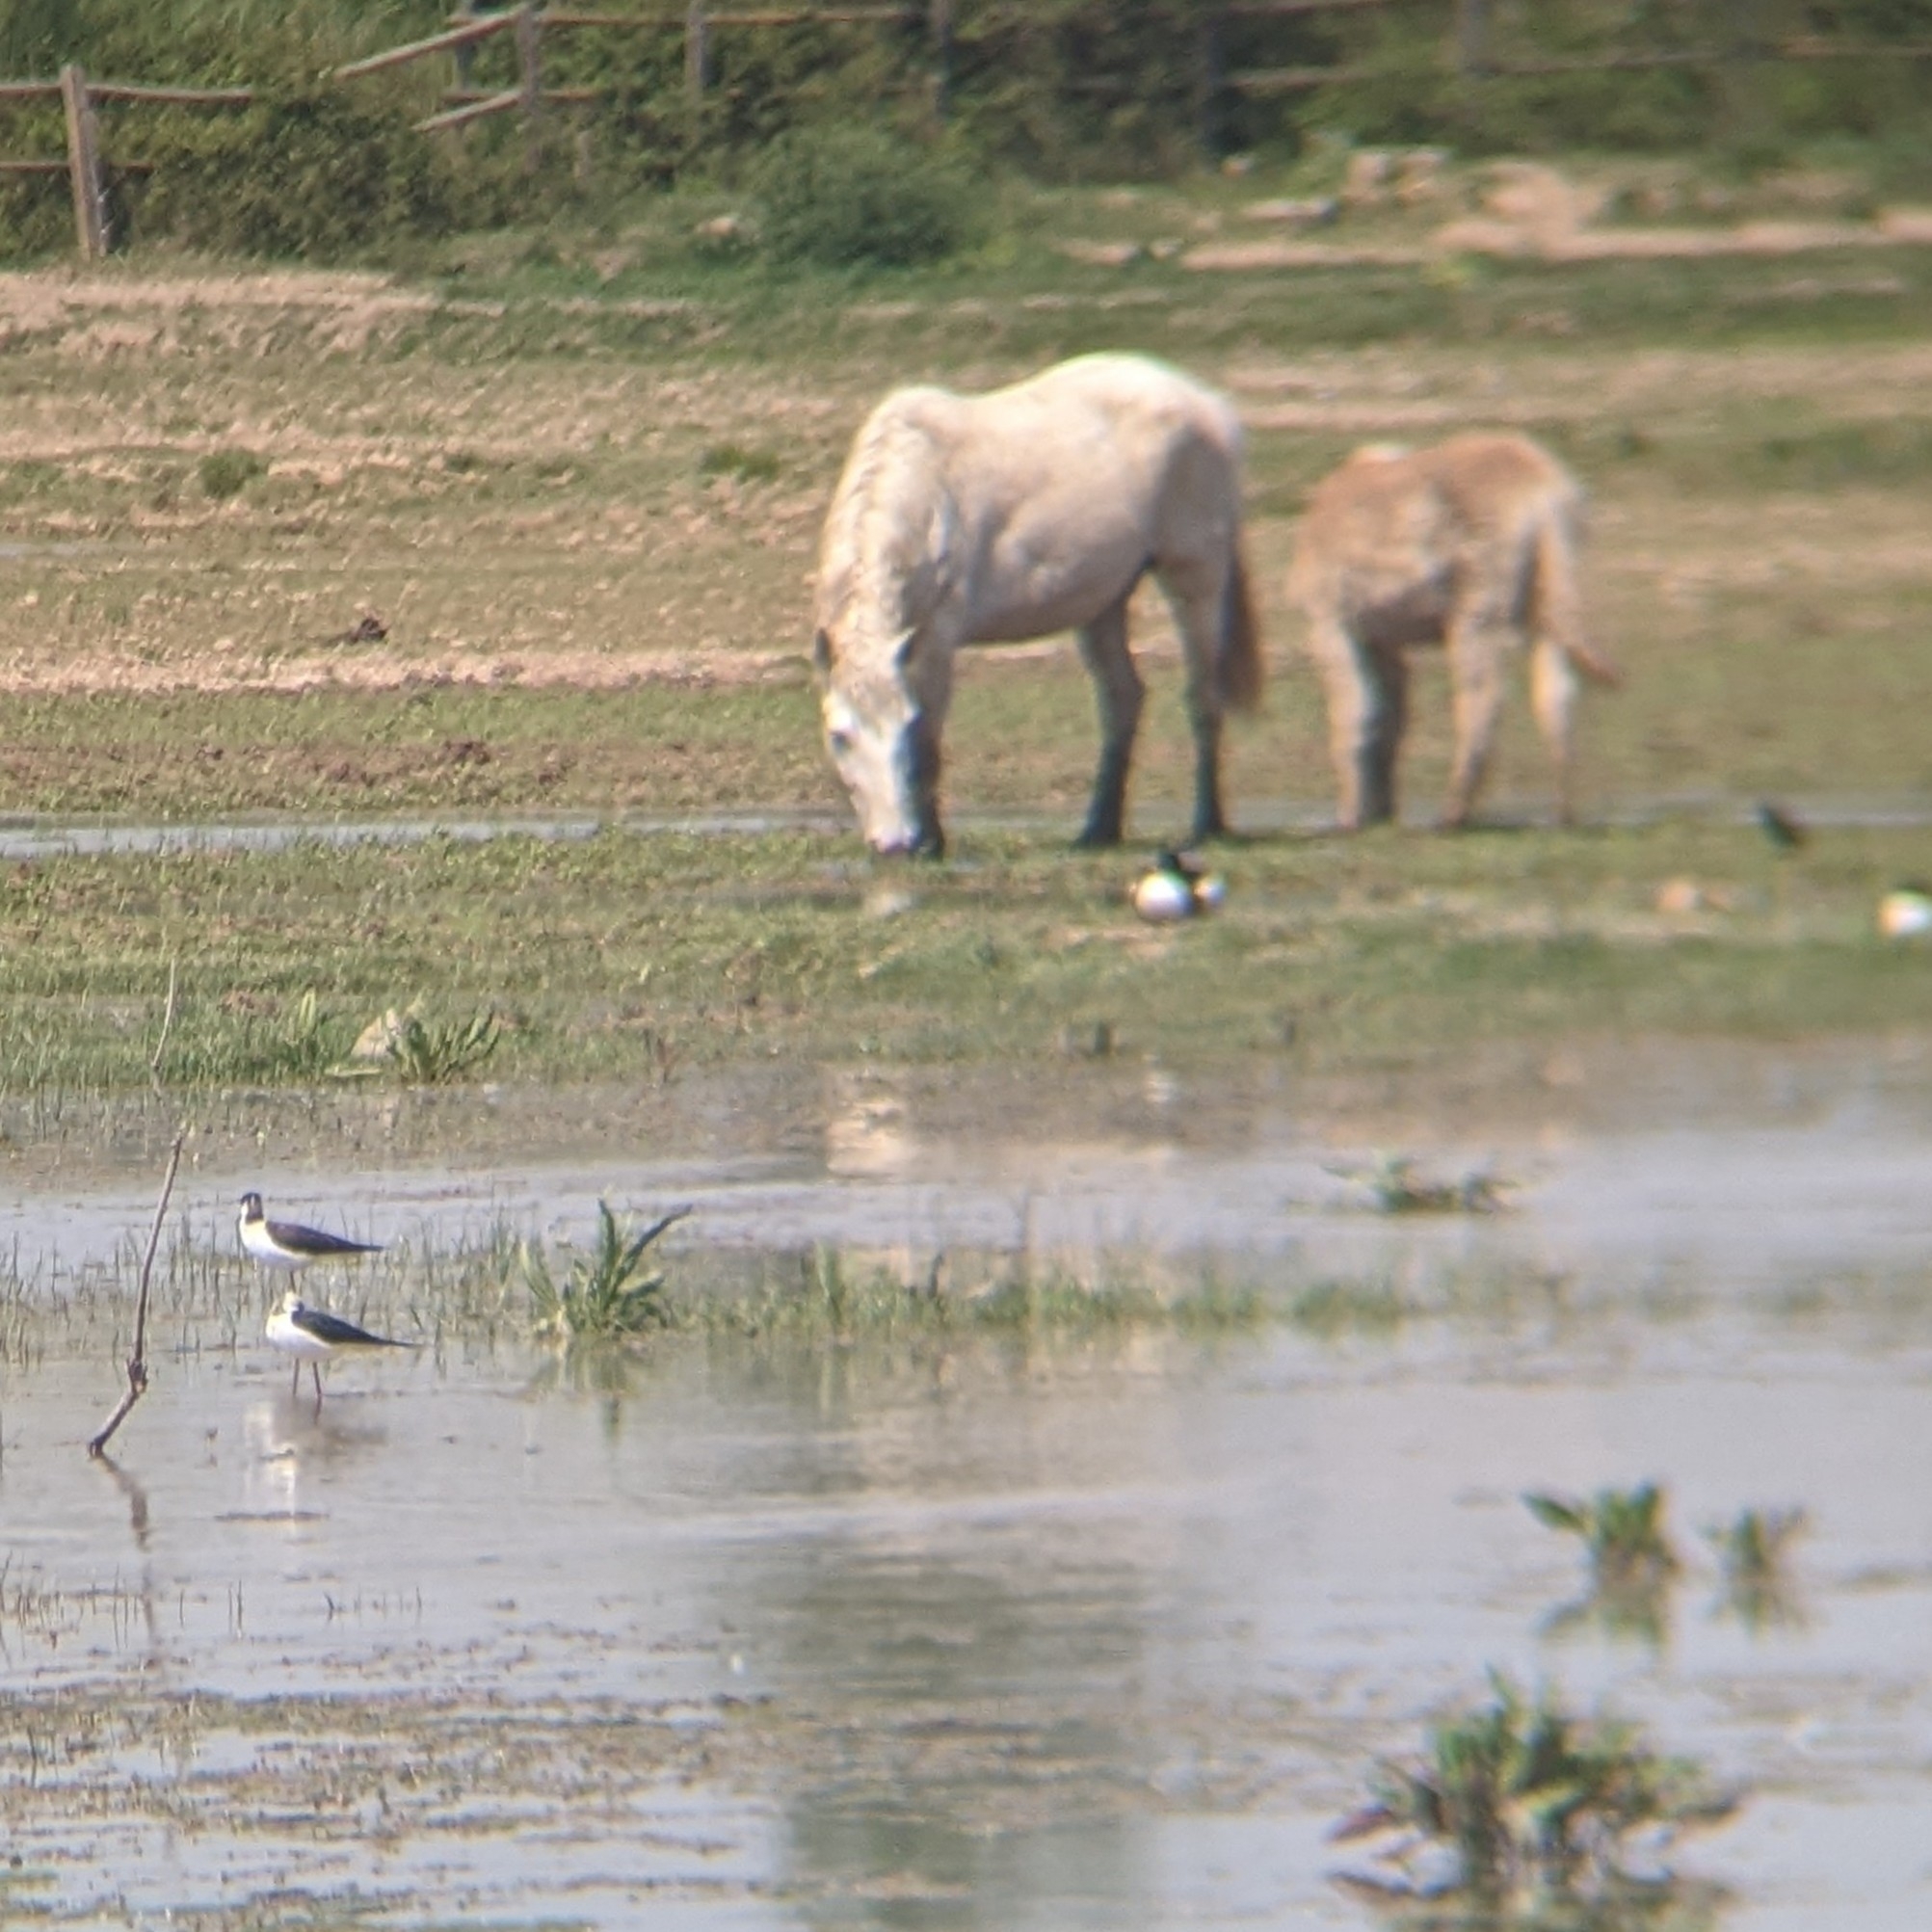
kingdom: Animalia
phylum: Chordata
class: Aves
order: Charadriiformes
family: Recurvirostridae
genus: Himantopus
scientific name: Himantopus himantopus
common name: Black-winged stilt
